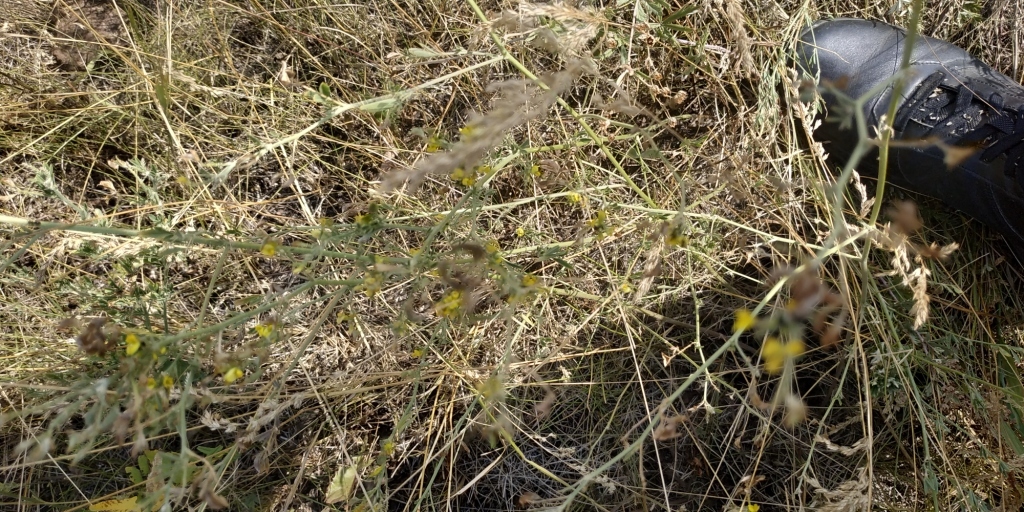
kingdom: Plantae
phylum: Tracheophyta
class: Magnoliopsida
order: Fabales
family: Fabaceae
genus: Medicago
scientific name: Medicago falcata
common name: Sickle medick
